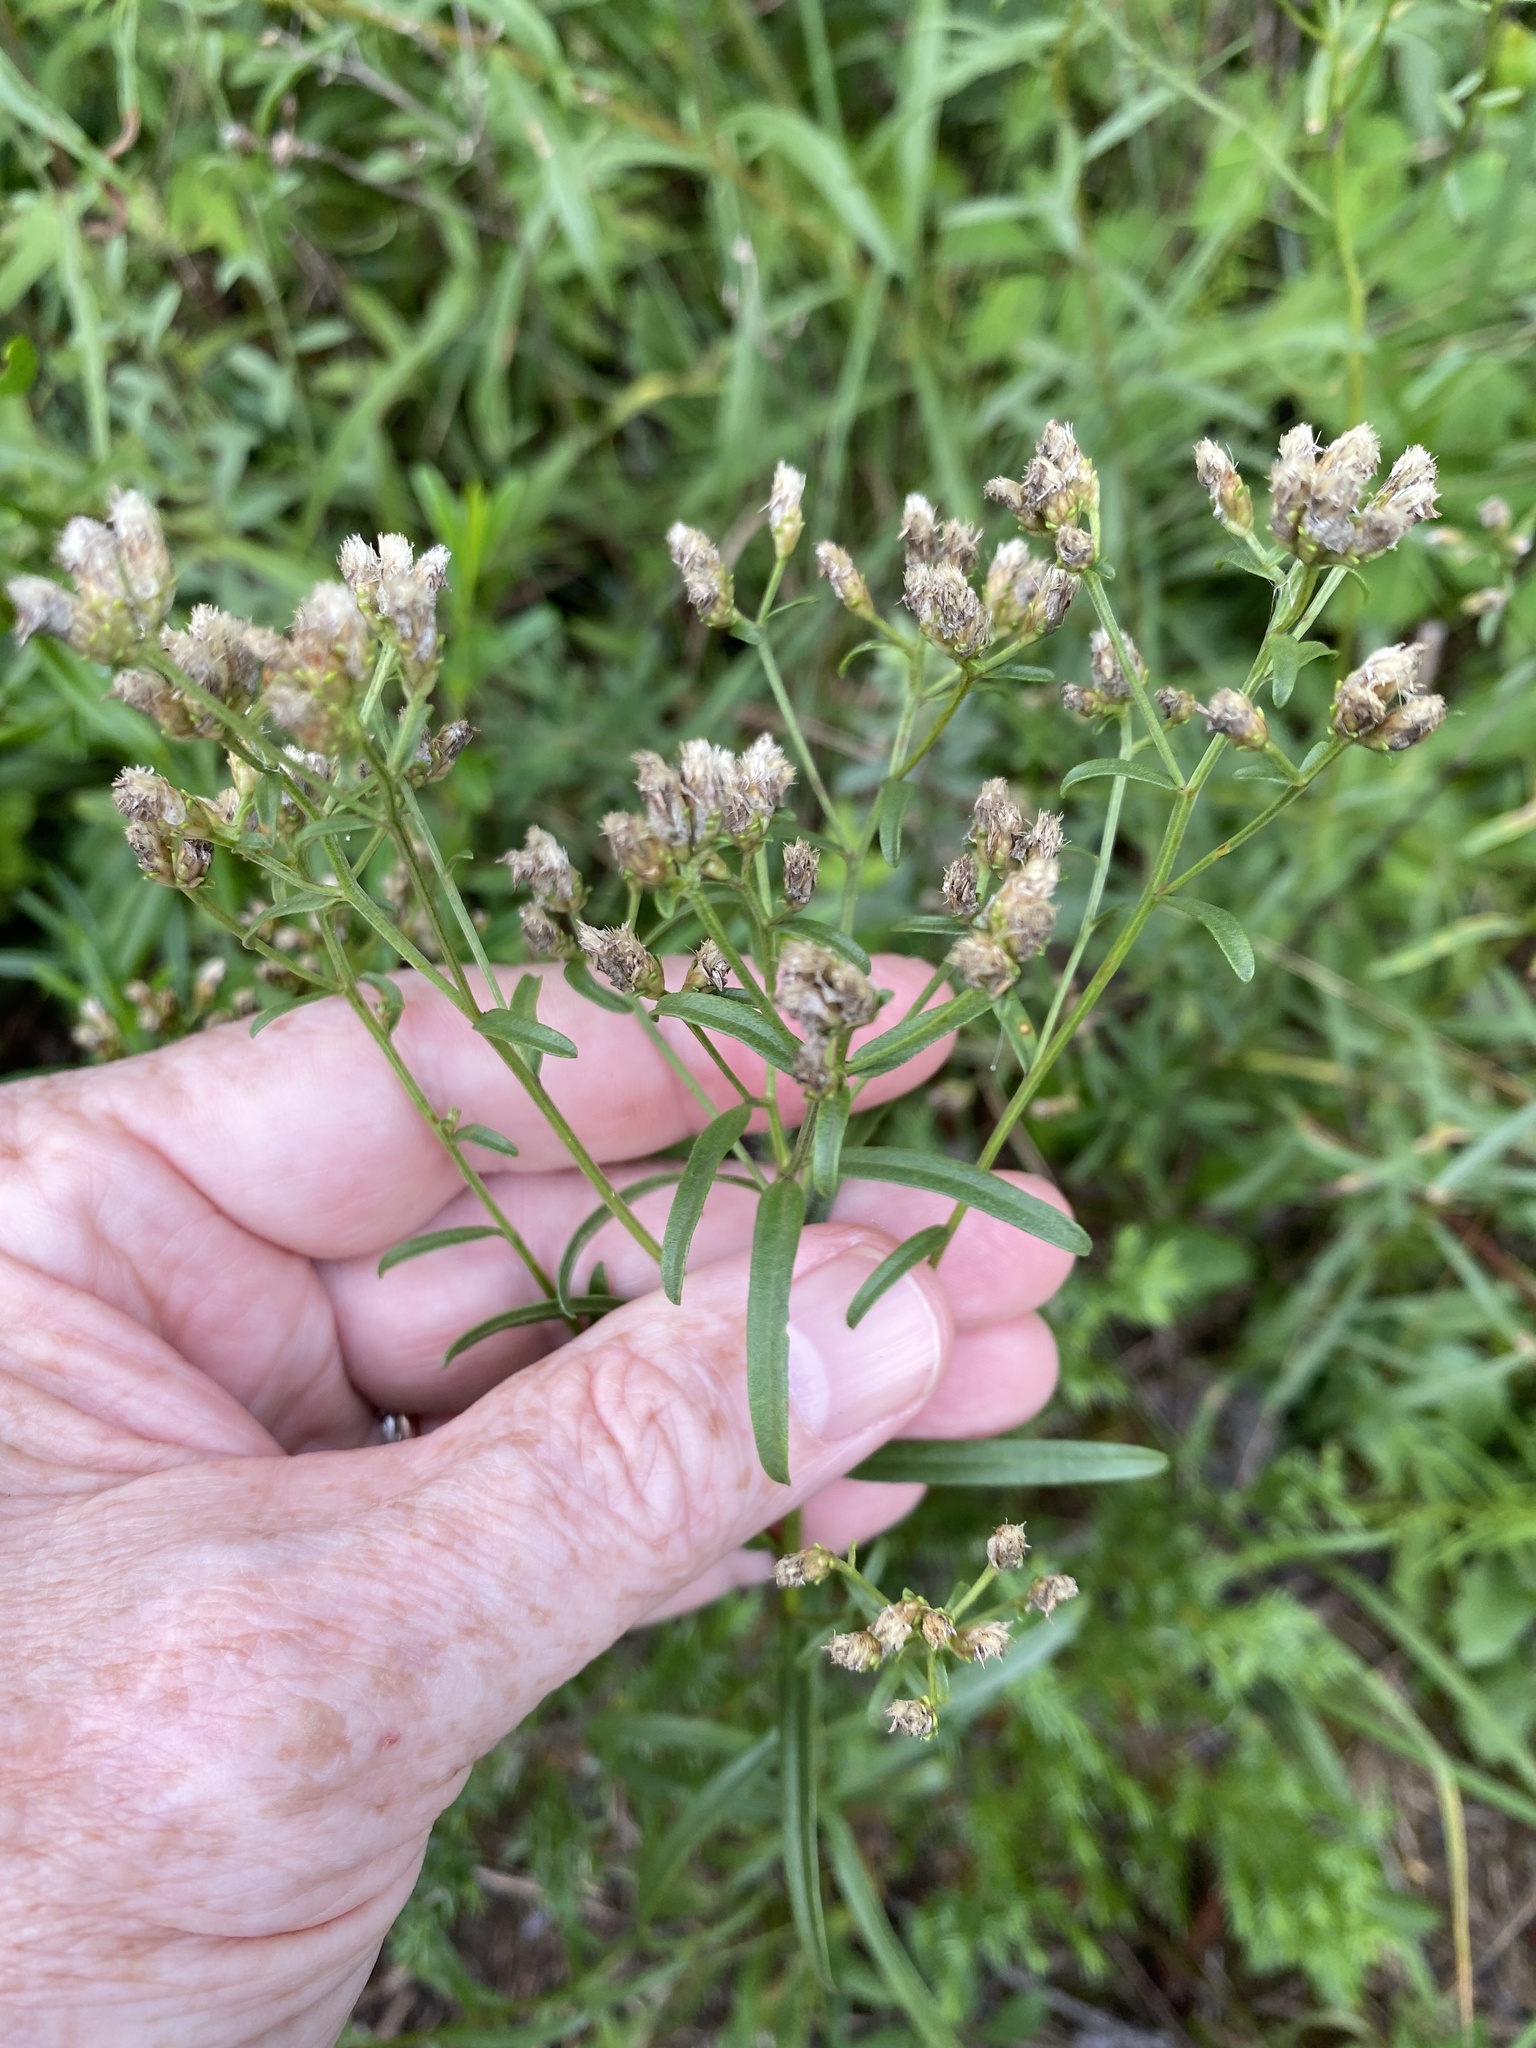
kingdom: Plantae
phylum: Tracheophyta
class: Magnoliopsida
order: Asterales
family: Asteraceae
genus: Sericocarpus
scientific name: Sericocarpus linifolius
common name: Narrow-leaf aster
